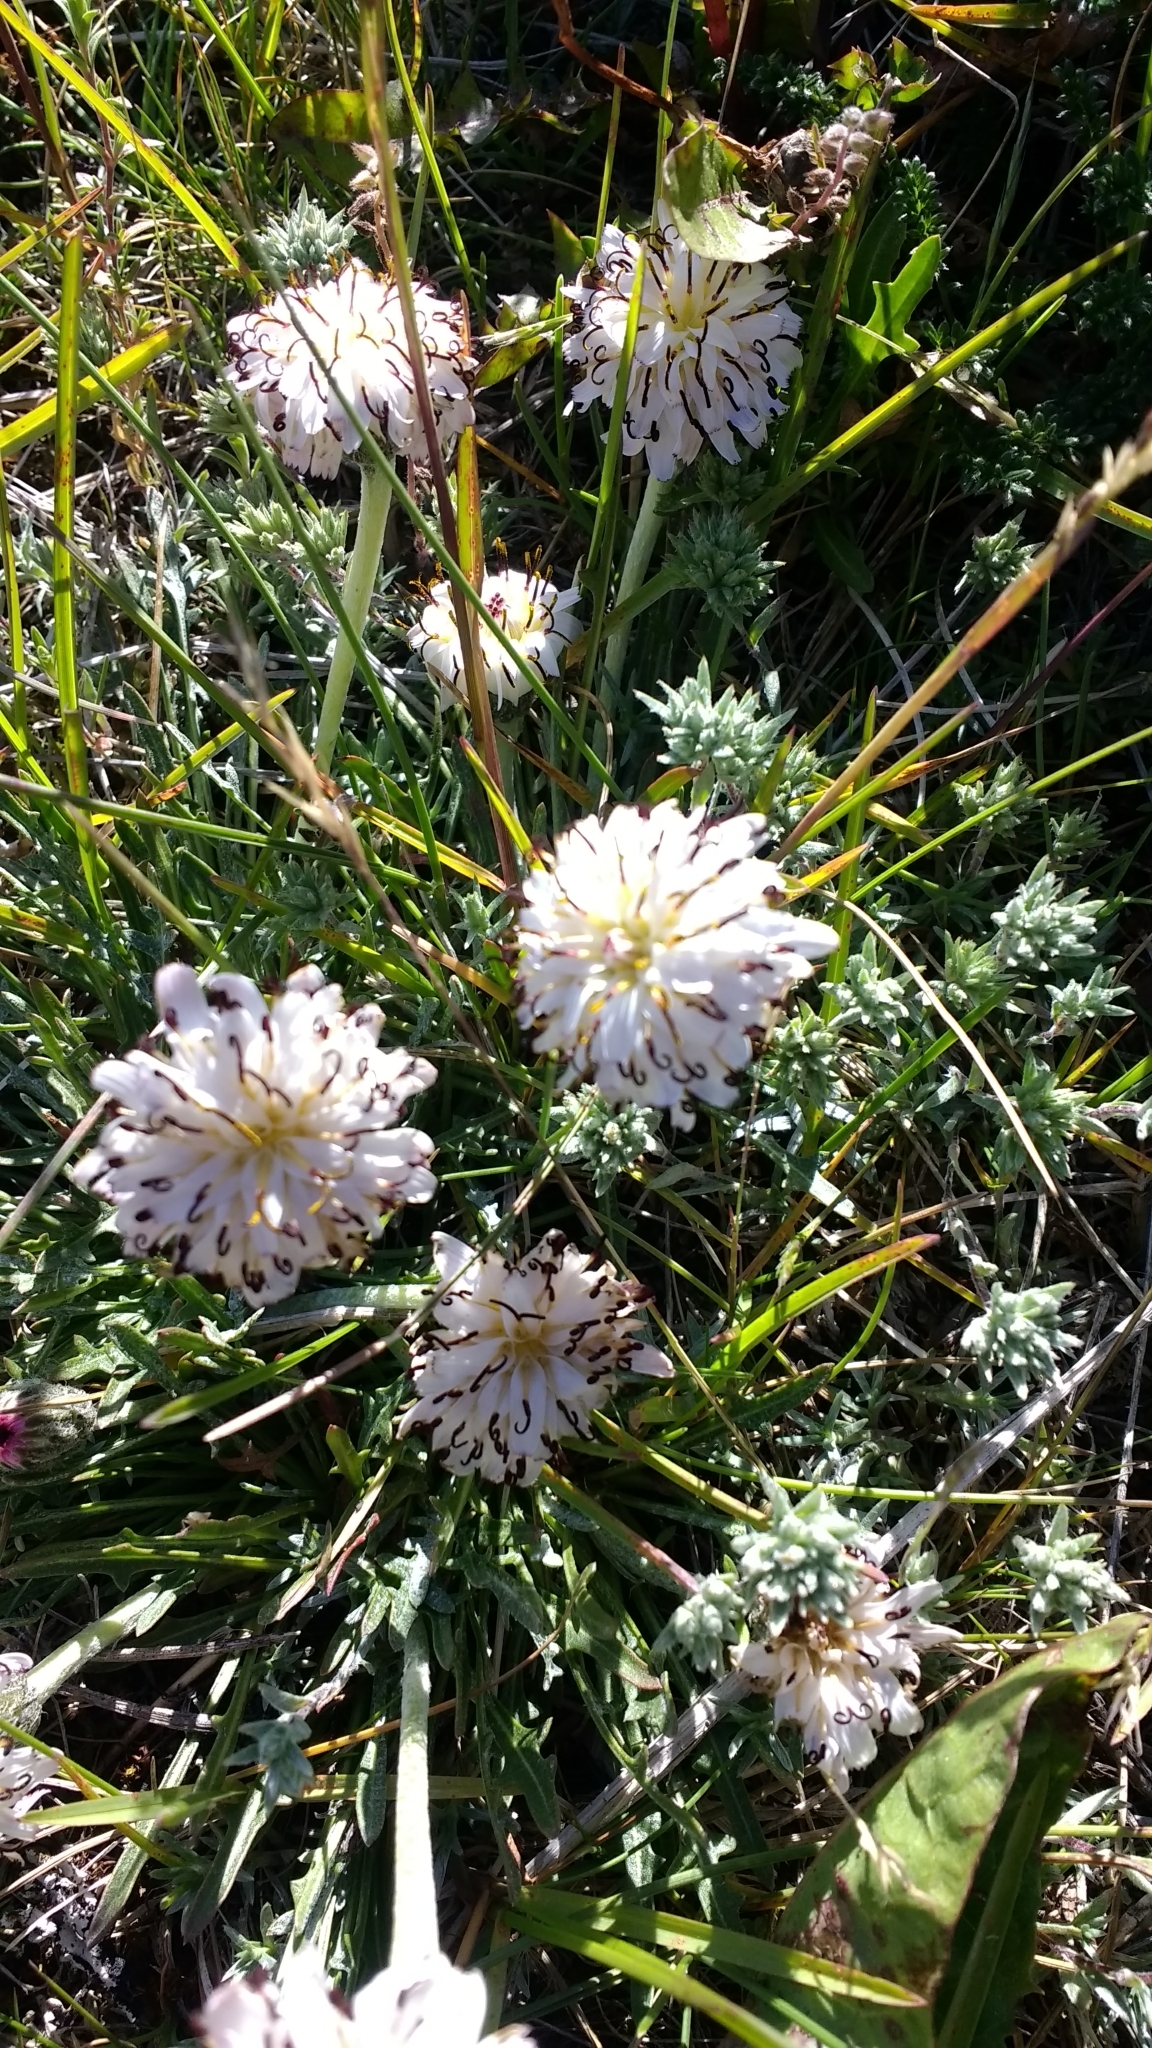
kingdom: Plantae
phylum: Tracheophyta
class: Magnoliopsida
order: Asterales
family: Asteraceae
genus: Hypochaeris
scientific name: Hypochaeris incana
